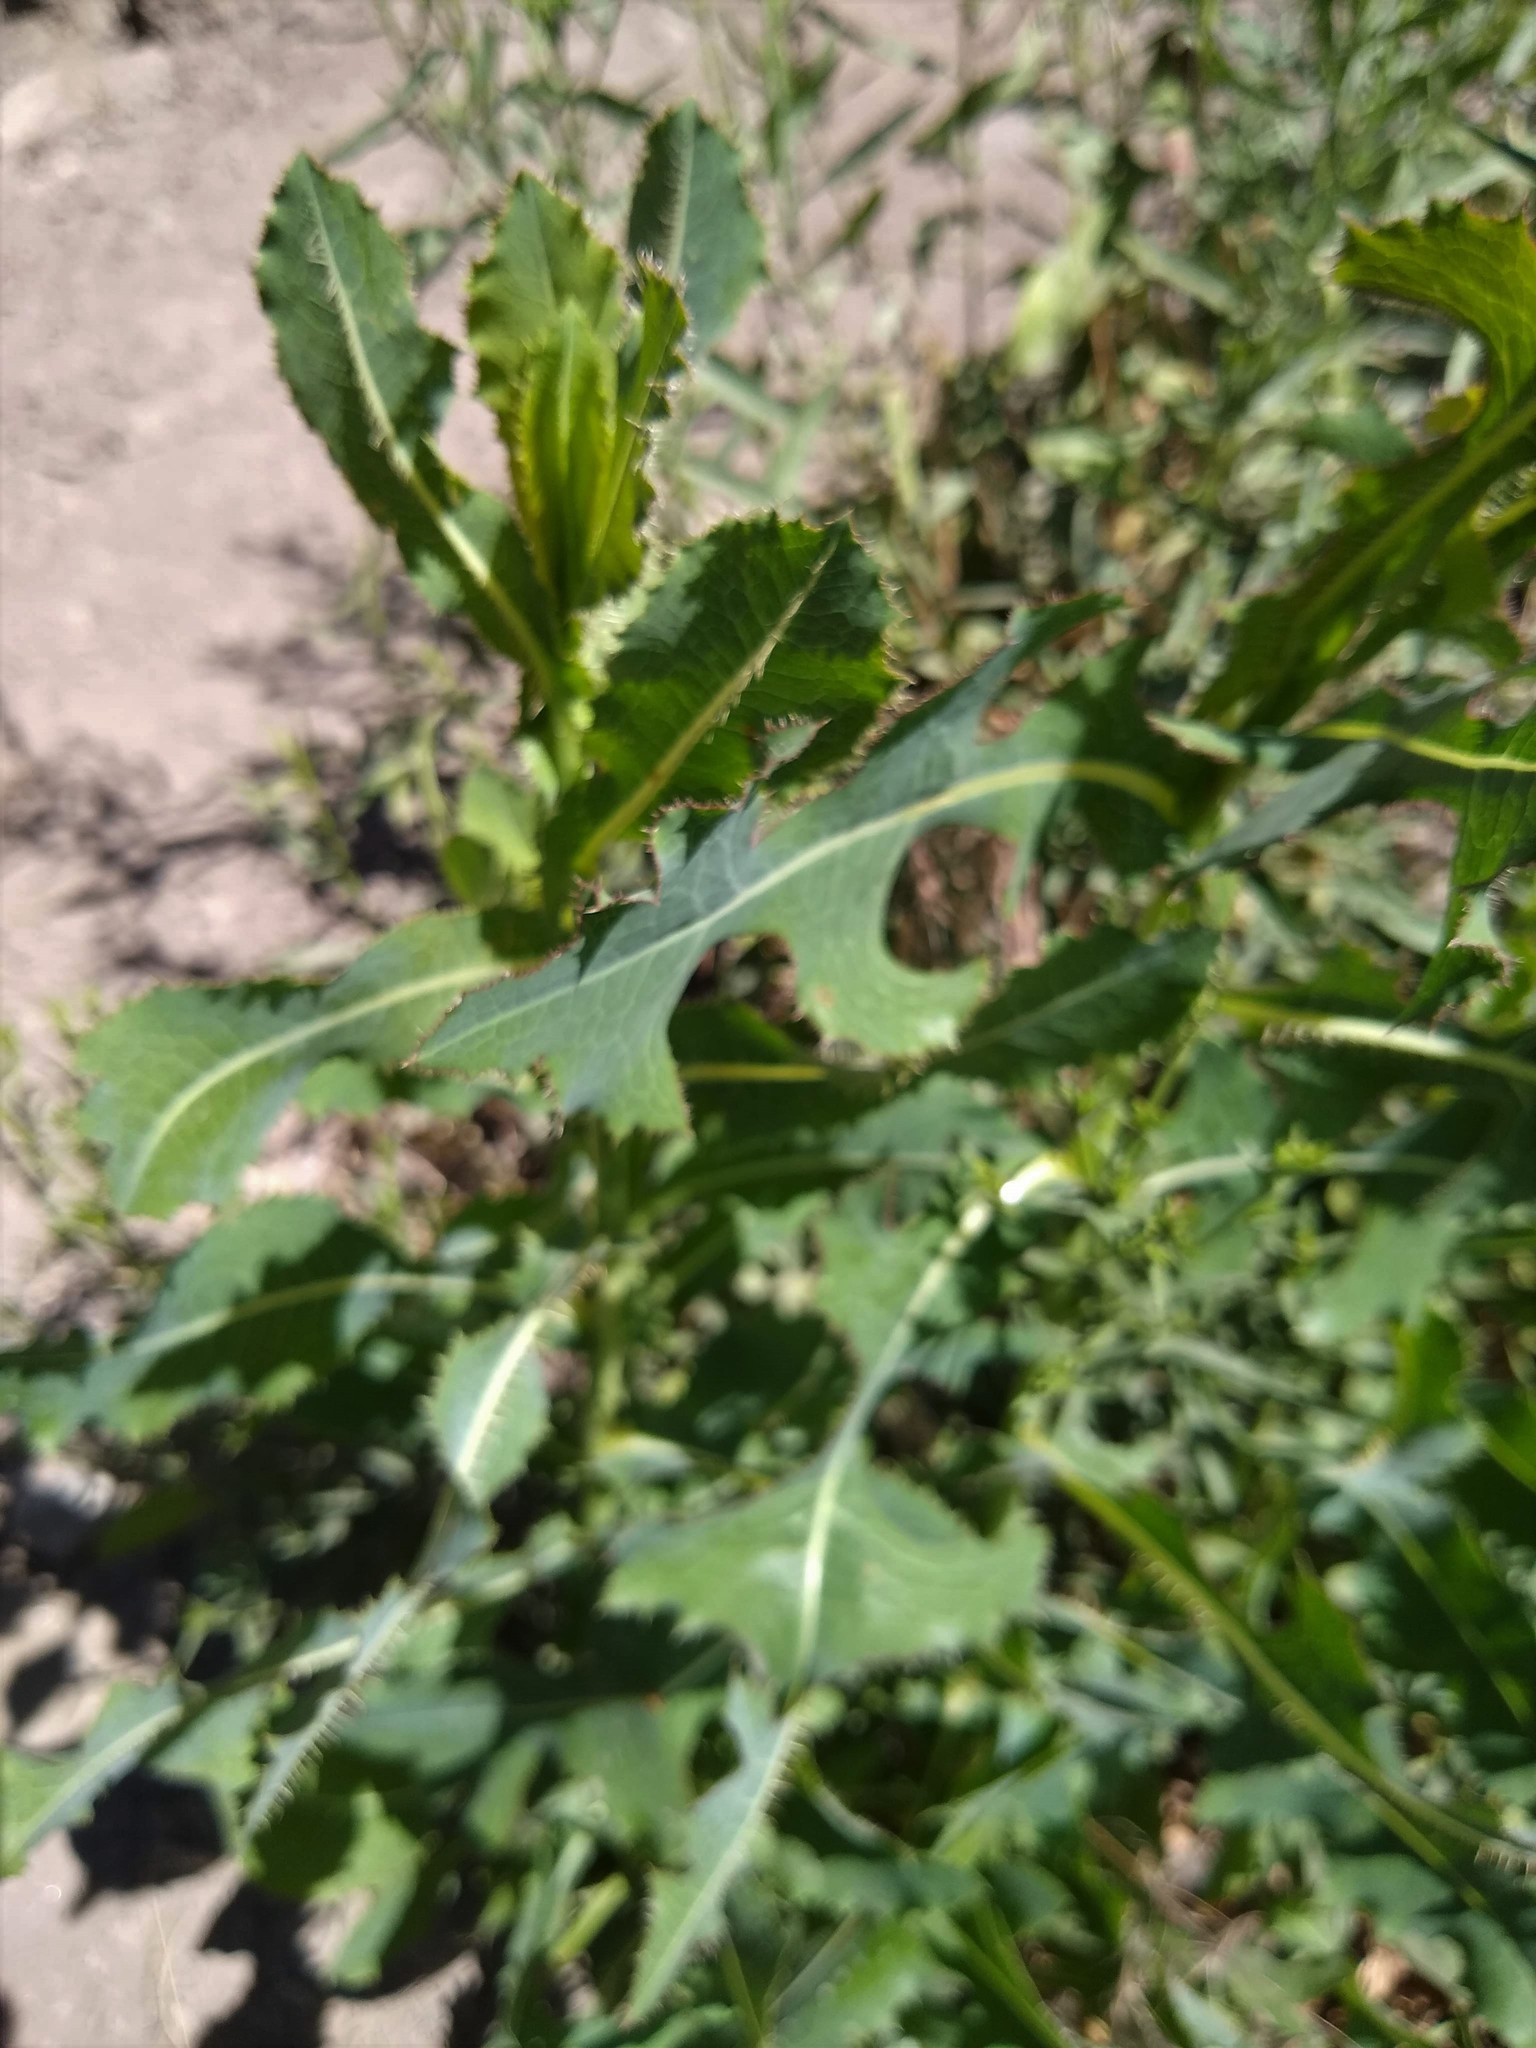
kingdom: Plantae
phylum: Tracheophyta
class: Magnoliopsida
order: Asterales
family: Asteraceae
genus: Lactuca
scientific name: Lactuca serriola
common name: Prickly lettuce
